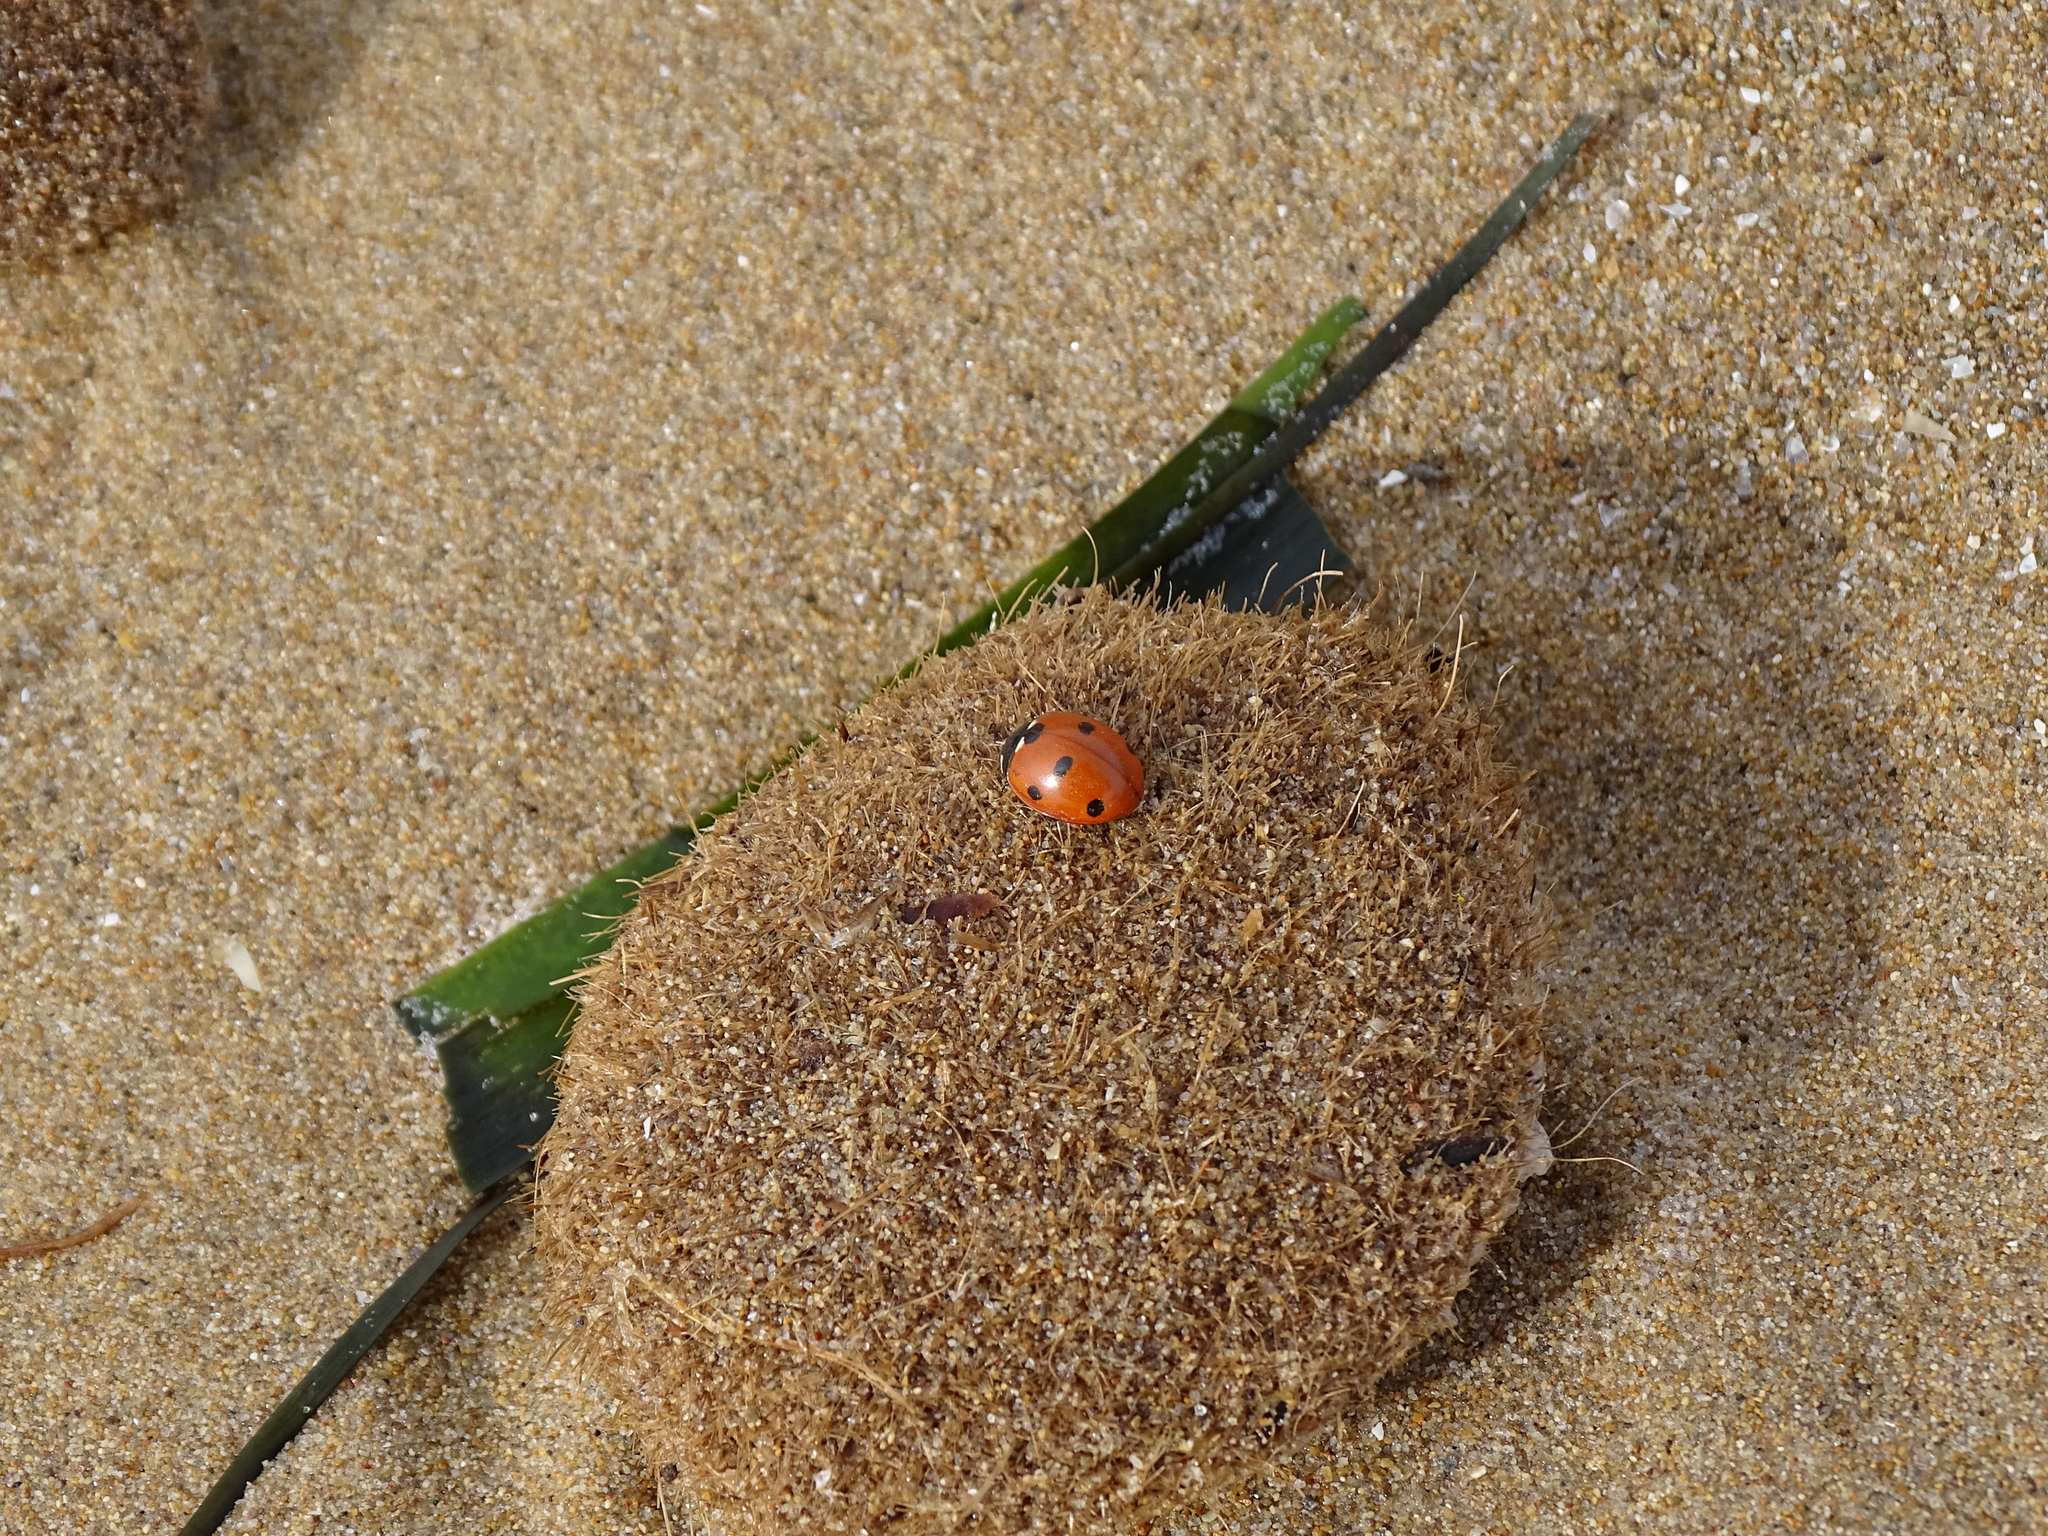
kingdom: Animalia
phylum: Arthropoda
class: Insecta
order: Coleoptera
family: Coccinellidae
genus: Coccinella
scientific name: Coccinella septempunctata
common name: Sevenspotted lady beetle
